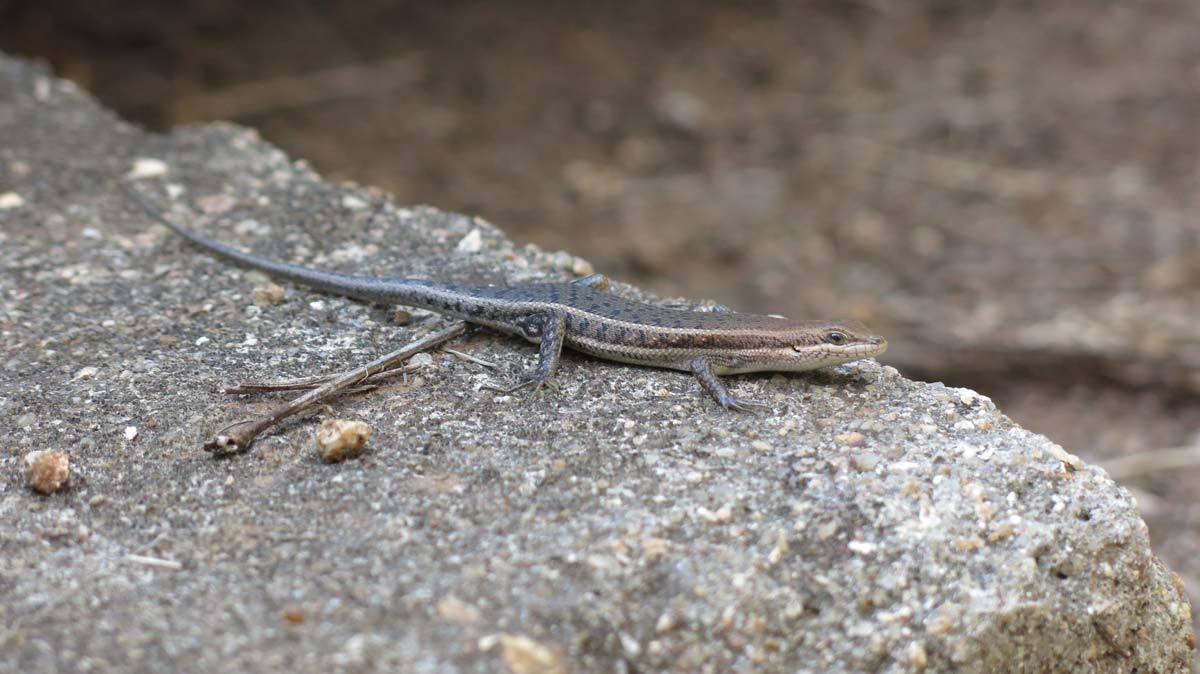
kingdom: Animalia
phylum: Chordata
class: Squamata
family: Scincidae
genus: Trachylepis
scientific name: Trachylepis varia
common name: Eastern variable skink
